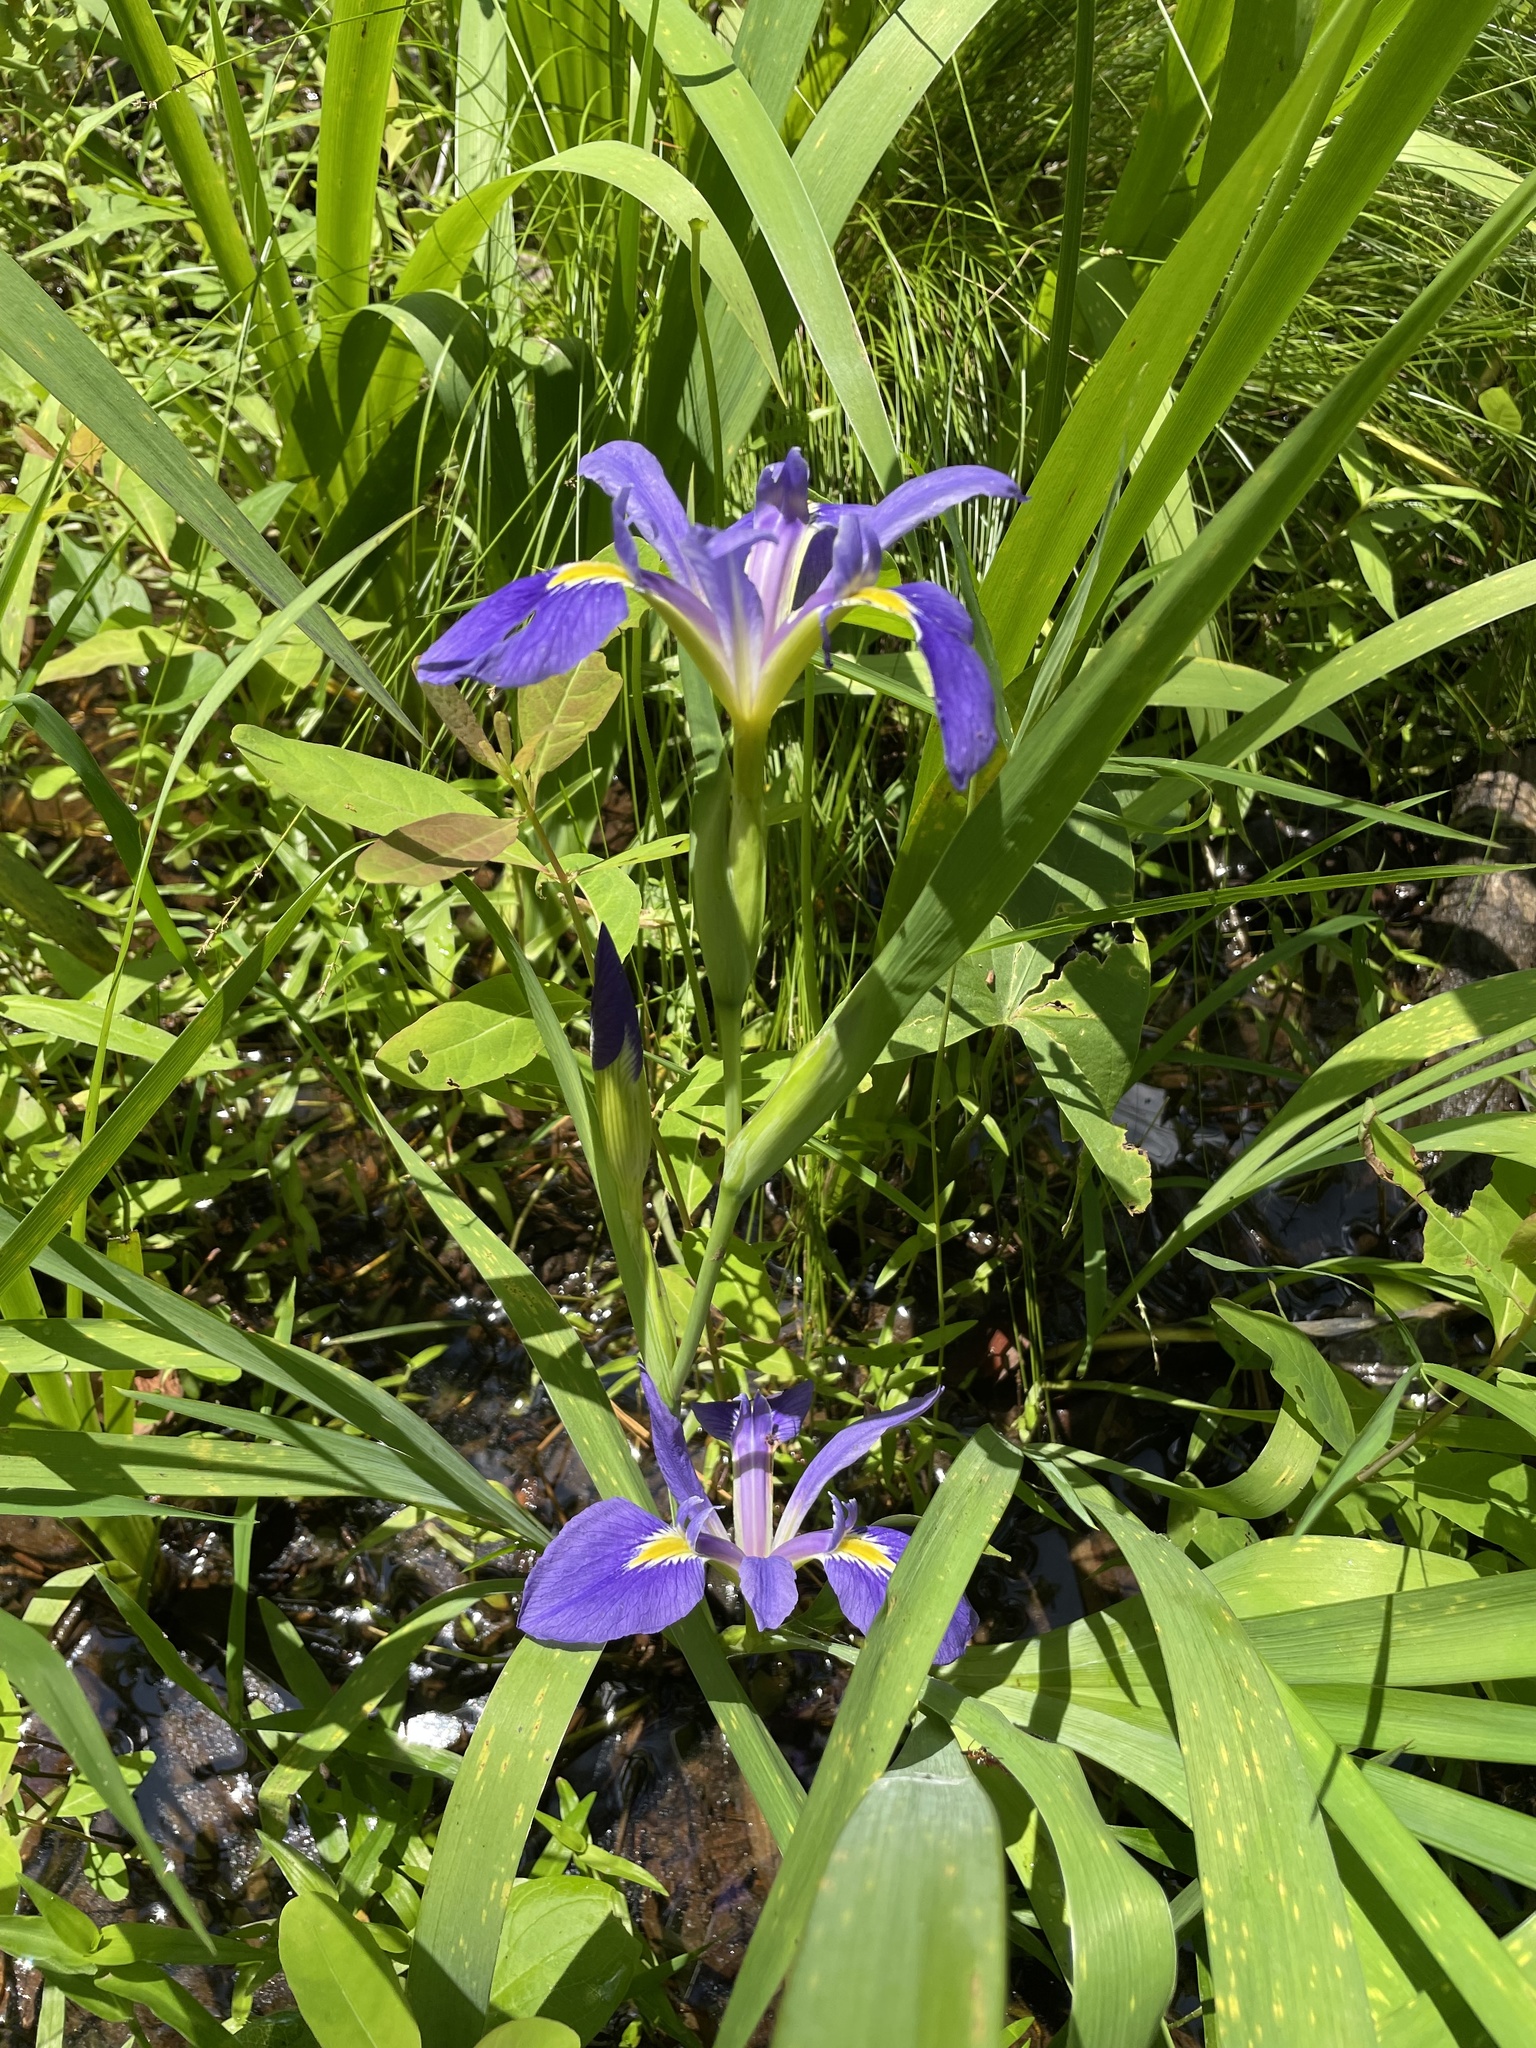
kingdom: Plantae
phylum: Tracheophyta
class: Liliopsida
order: Asparagales
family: Iridaceae
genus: Iris
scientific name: Iris brevicaulis
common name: Zigzag iris
